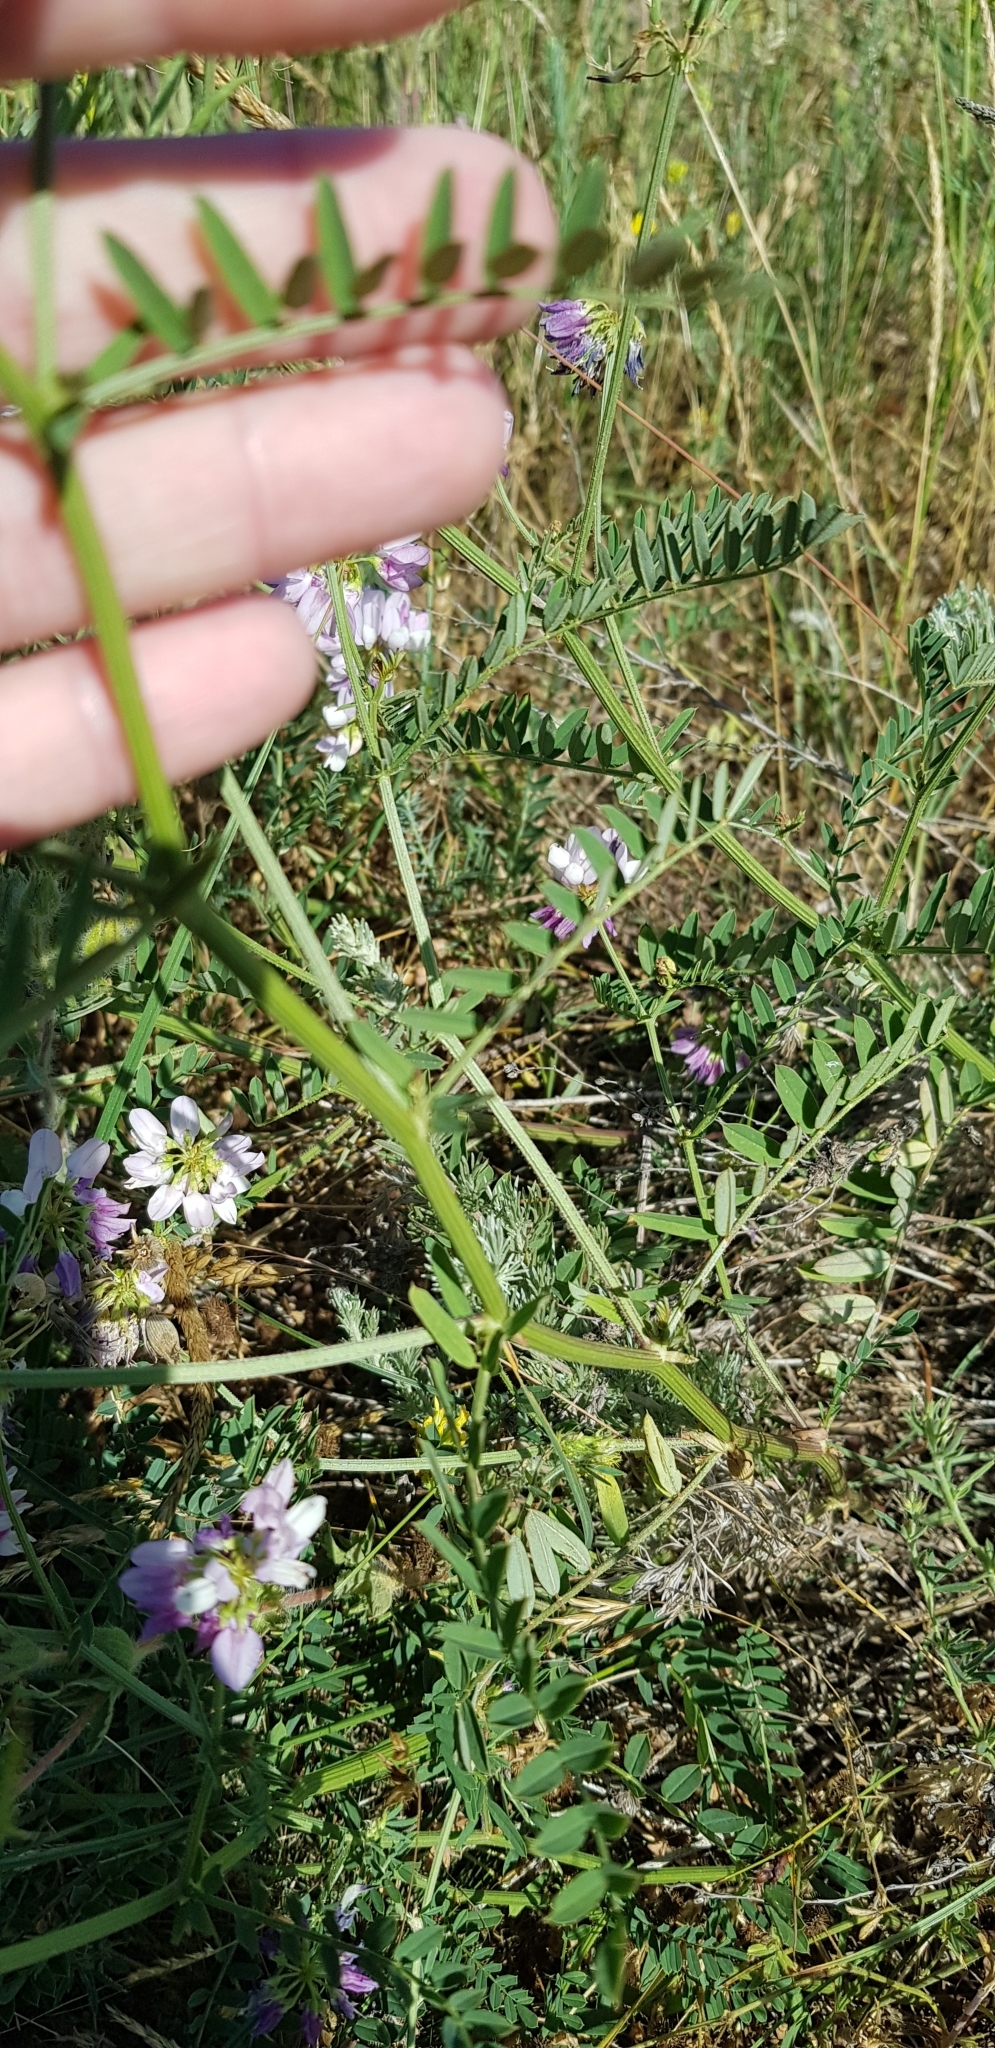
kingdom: Plantae
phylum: Tracheophyta
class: Magnoliopsida
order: Fabales
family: Fabaceae
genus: Coronilla
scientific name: Coronilla varia
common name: Crownvetch
